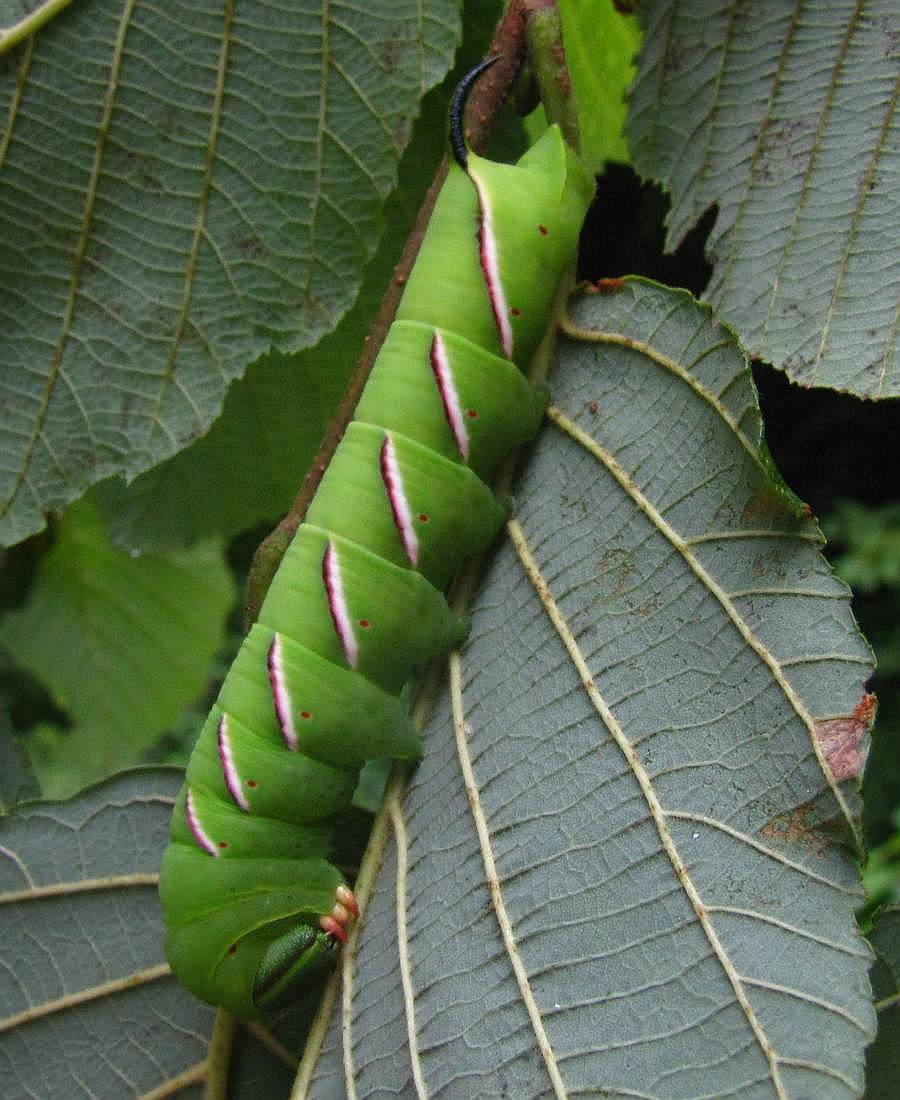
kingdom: Animalia
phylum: Arthropoda
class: Insecta
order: Lepidoptera
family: Sphingidae
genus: Sphinx
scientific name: Sphinx poecila
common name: Northern apple sphinx
